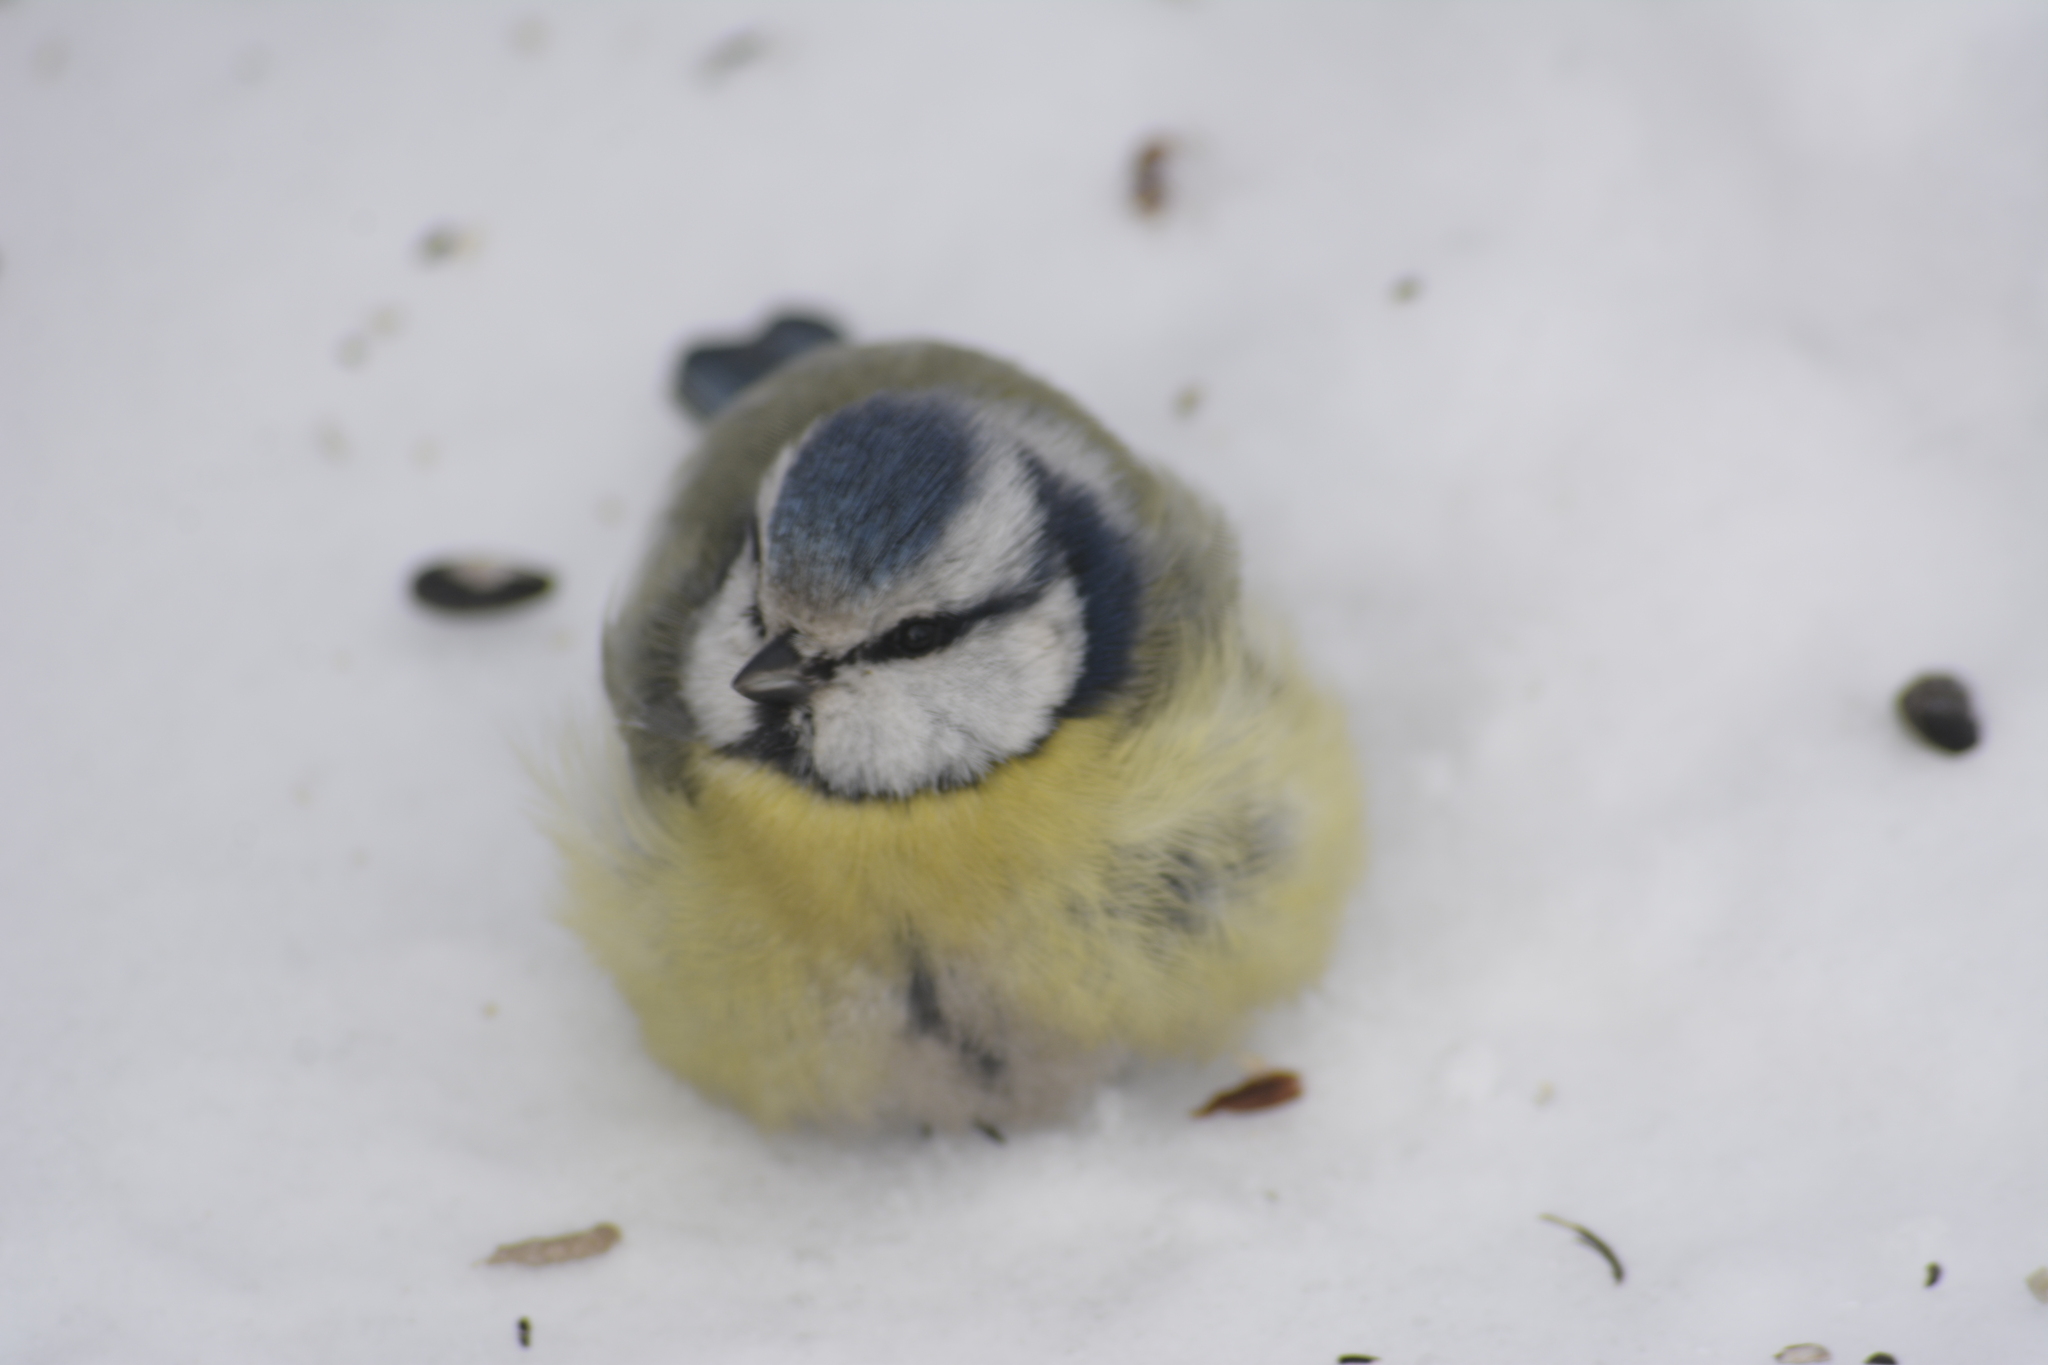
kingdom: Animalia
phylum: Chordata
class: Aves
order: Passeriformes
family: Paridae
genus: Cyanistes
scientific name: Cyanistes caeruleus
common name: Eurasian blue tit
